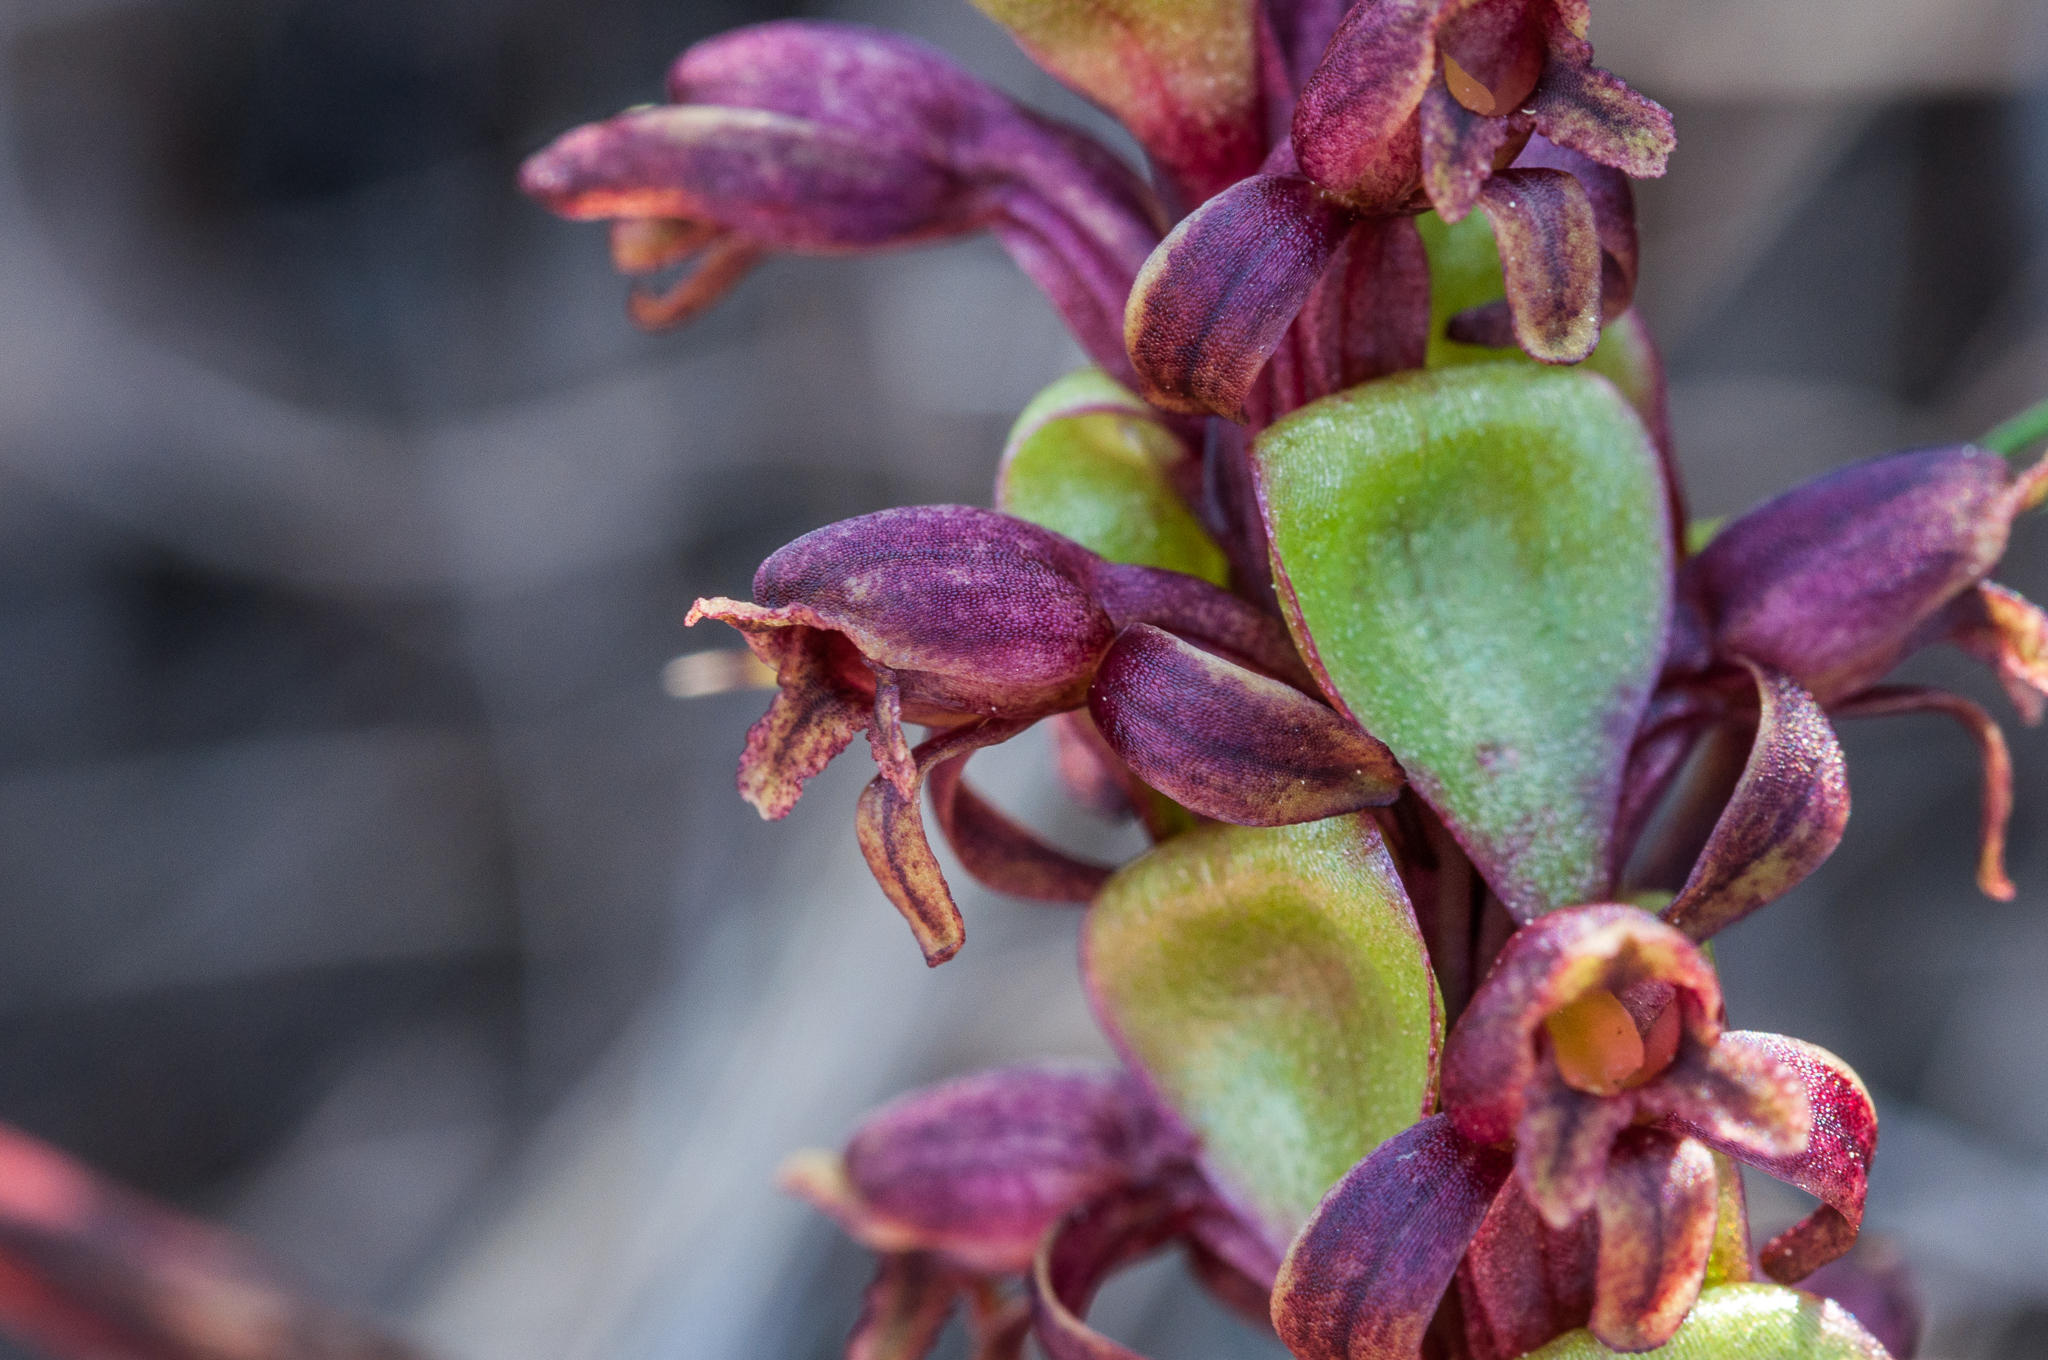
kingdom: Plantae
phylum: Tracheophyta
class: Liliopsida
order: Asparagales
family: Orchidaceae
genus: Satyrium
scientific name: Satyrium lupulinum
